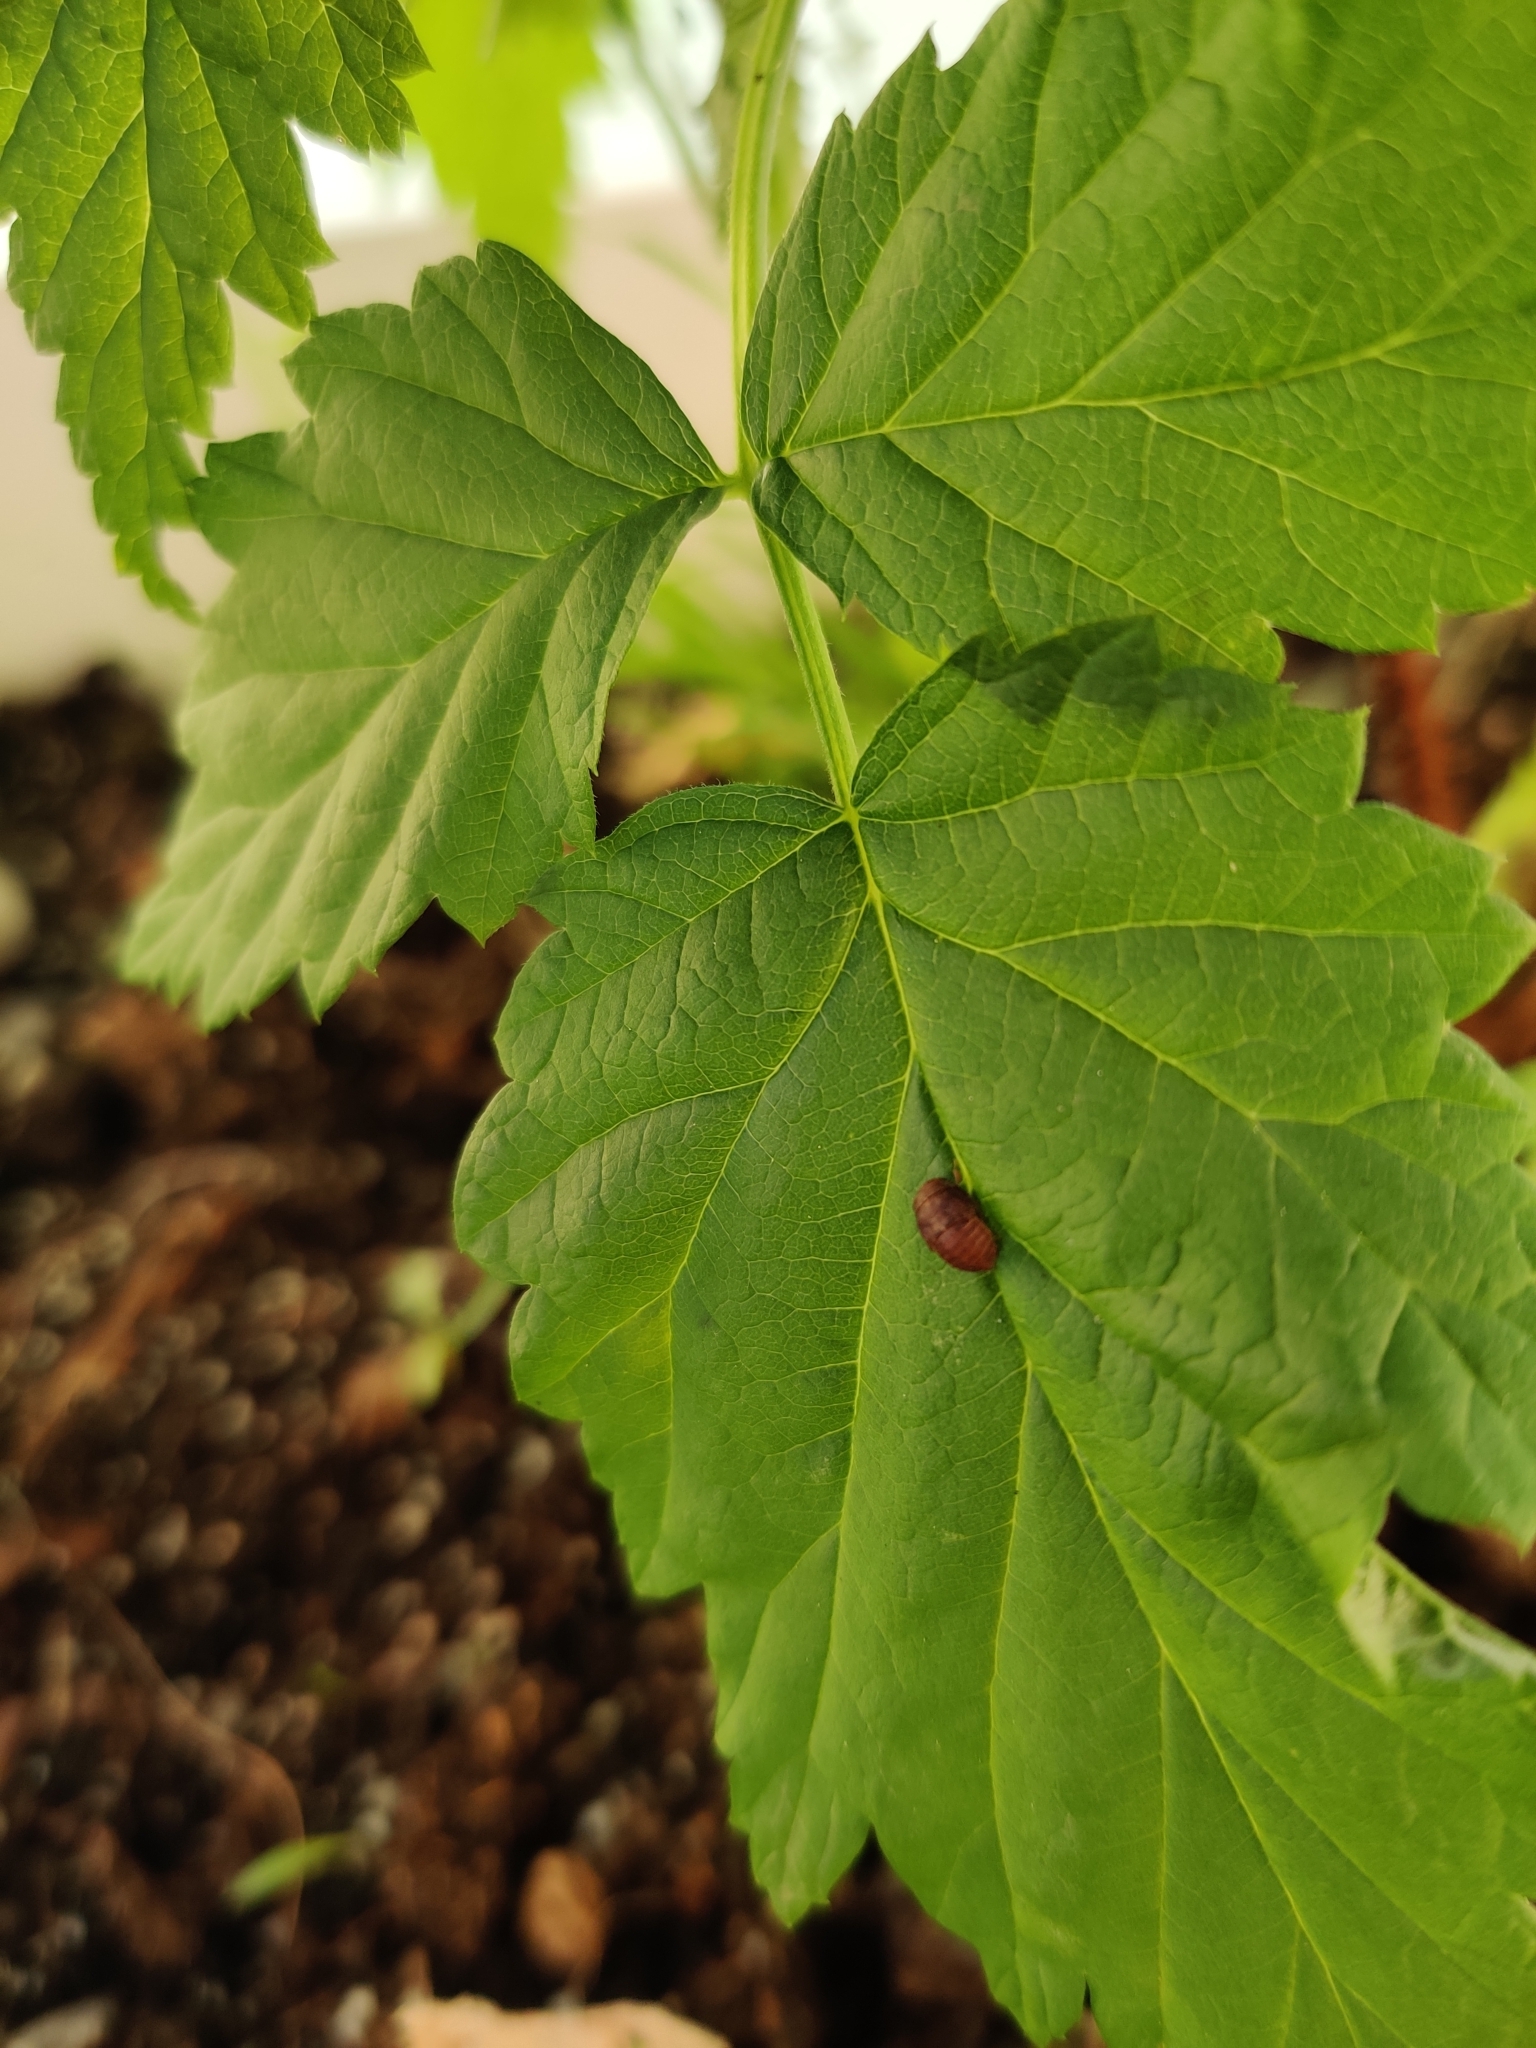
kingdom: Animalia
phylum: Arthropoda
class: Insecta
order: Hemiptera
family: Cicadellidae
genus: Penthimia
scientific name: Penthimia nigra
